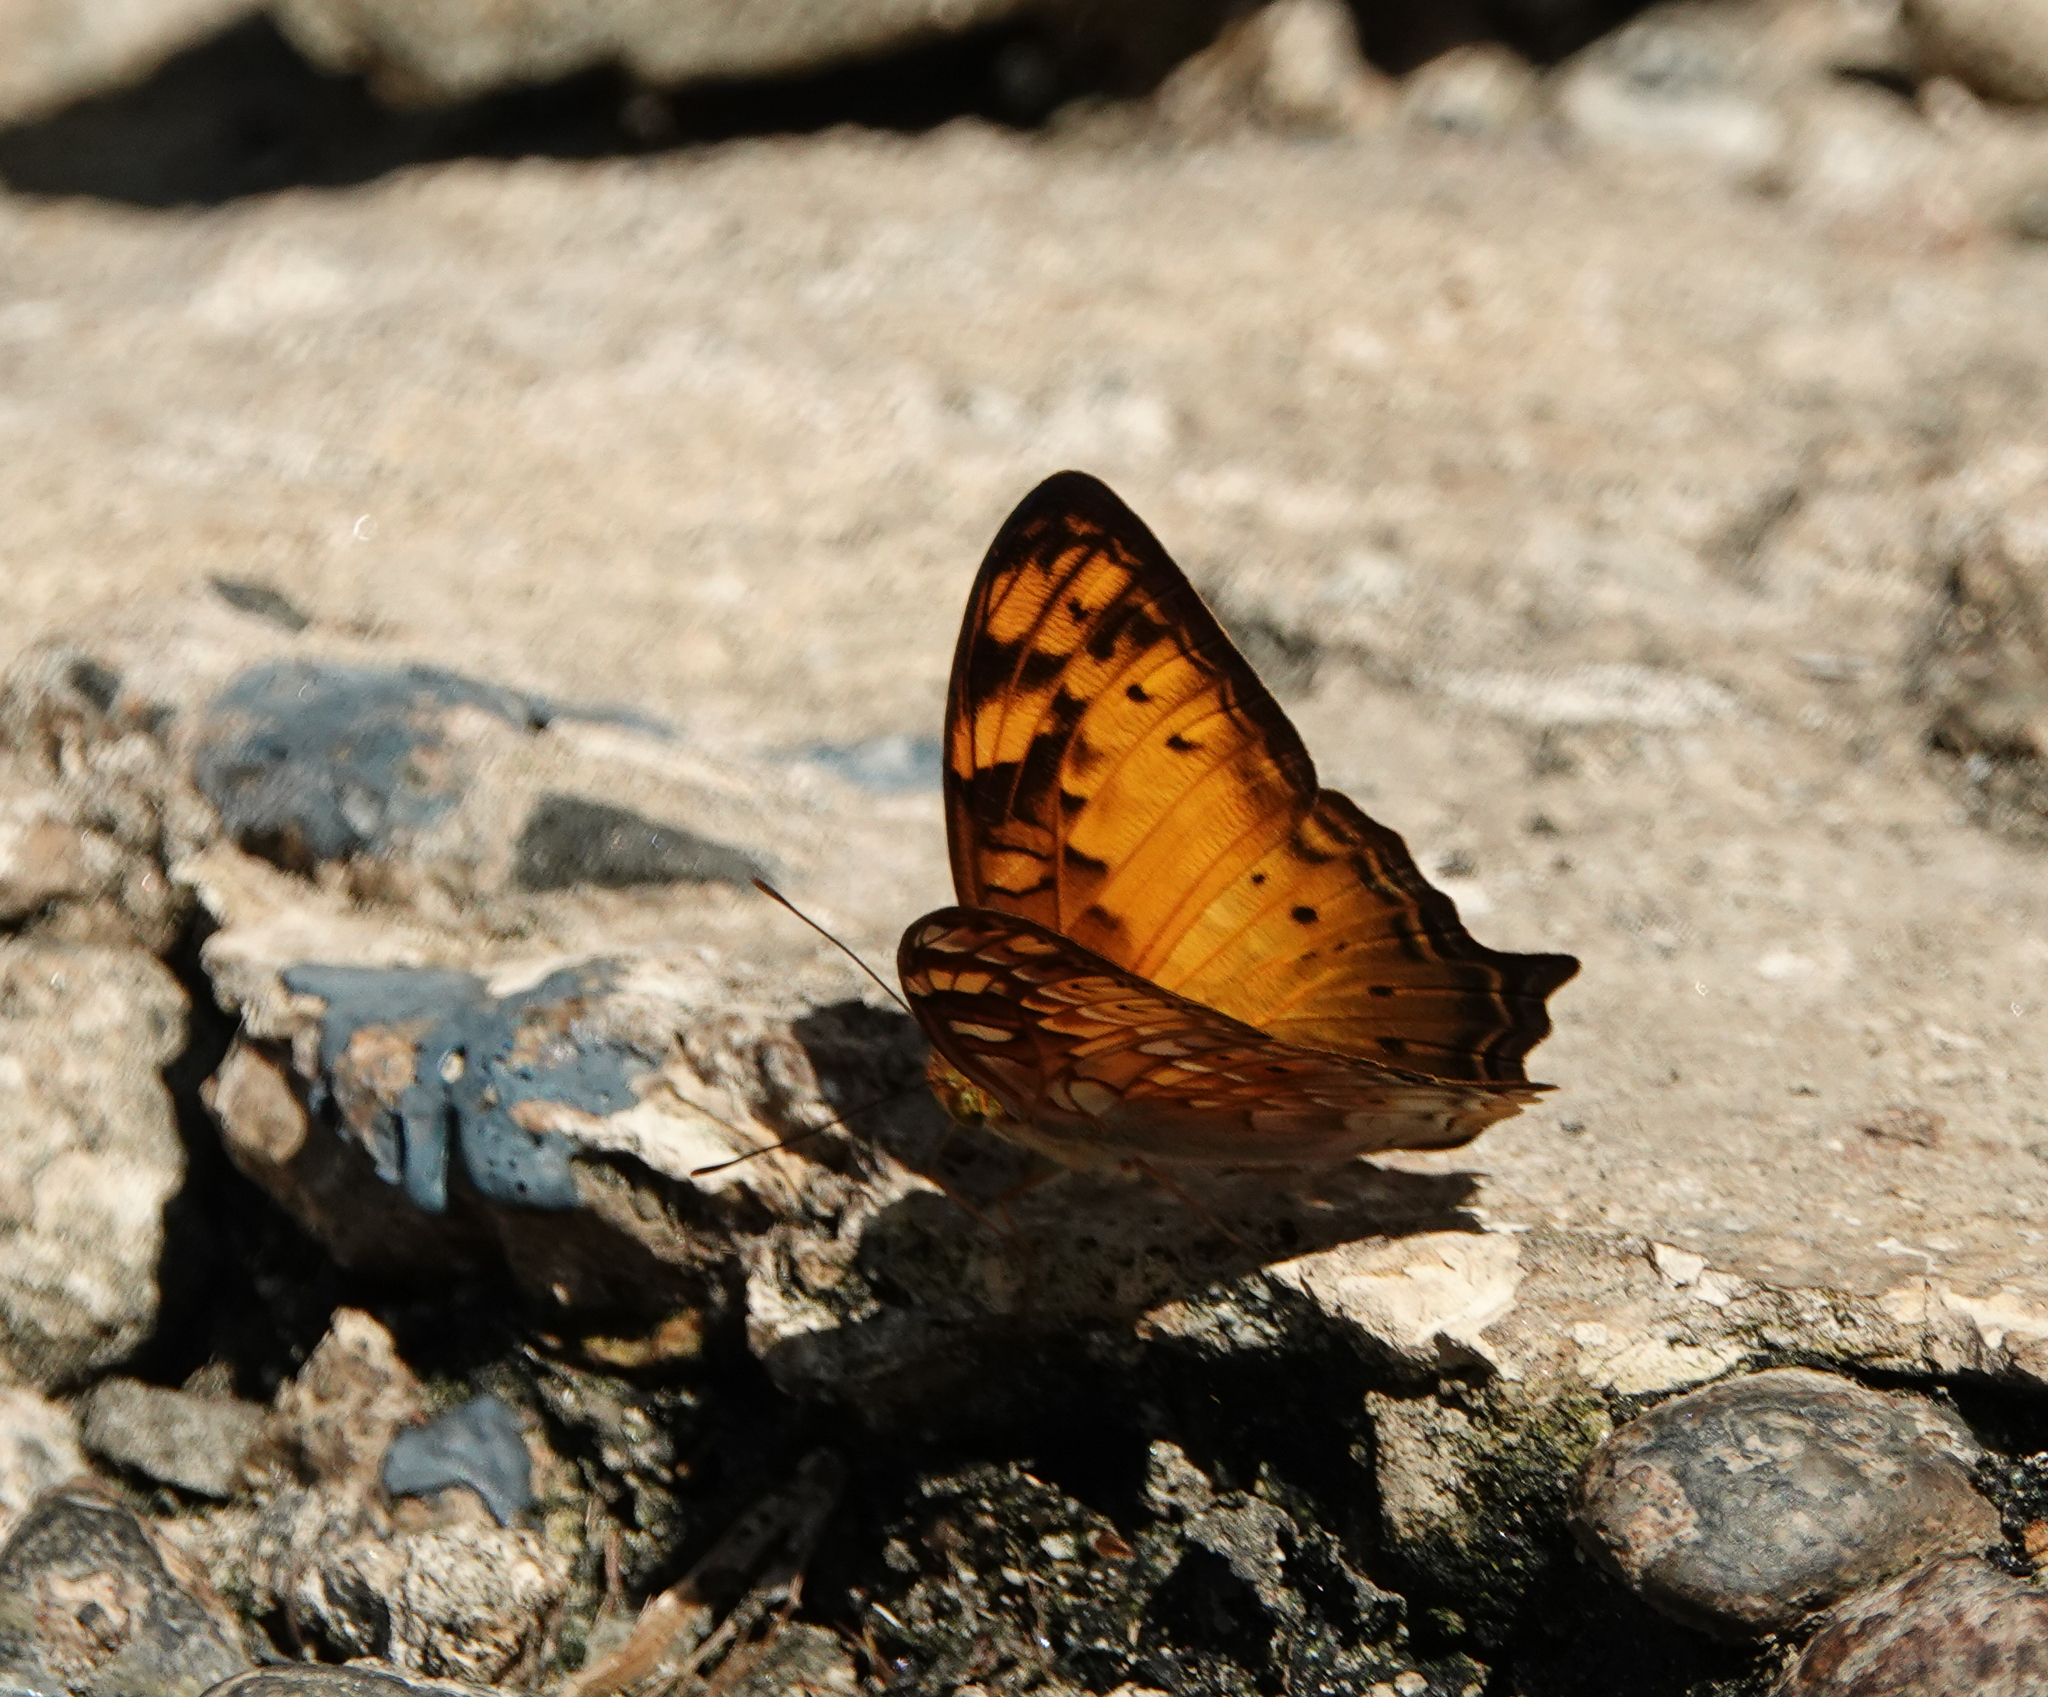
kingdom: Animalia
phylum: Arthropoda
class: Insecta
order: Lepidoptera
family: Nymphalidae
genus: Vagrans
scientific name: Vagrans sinha
